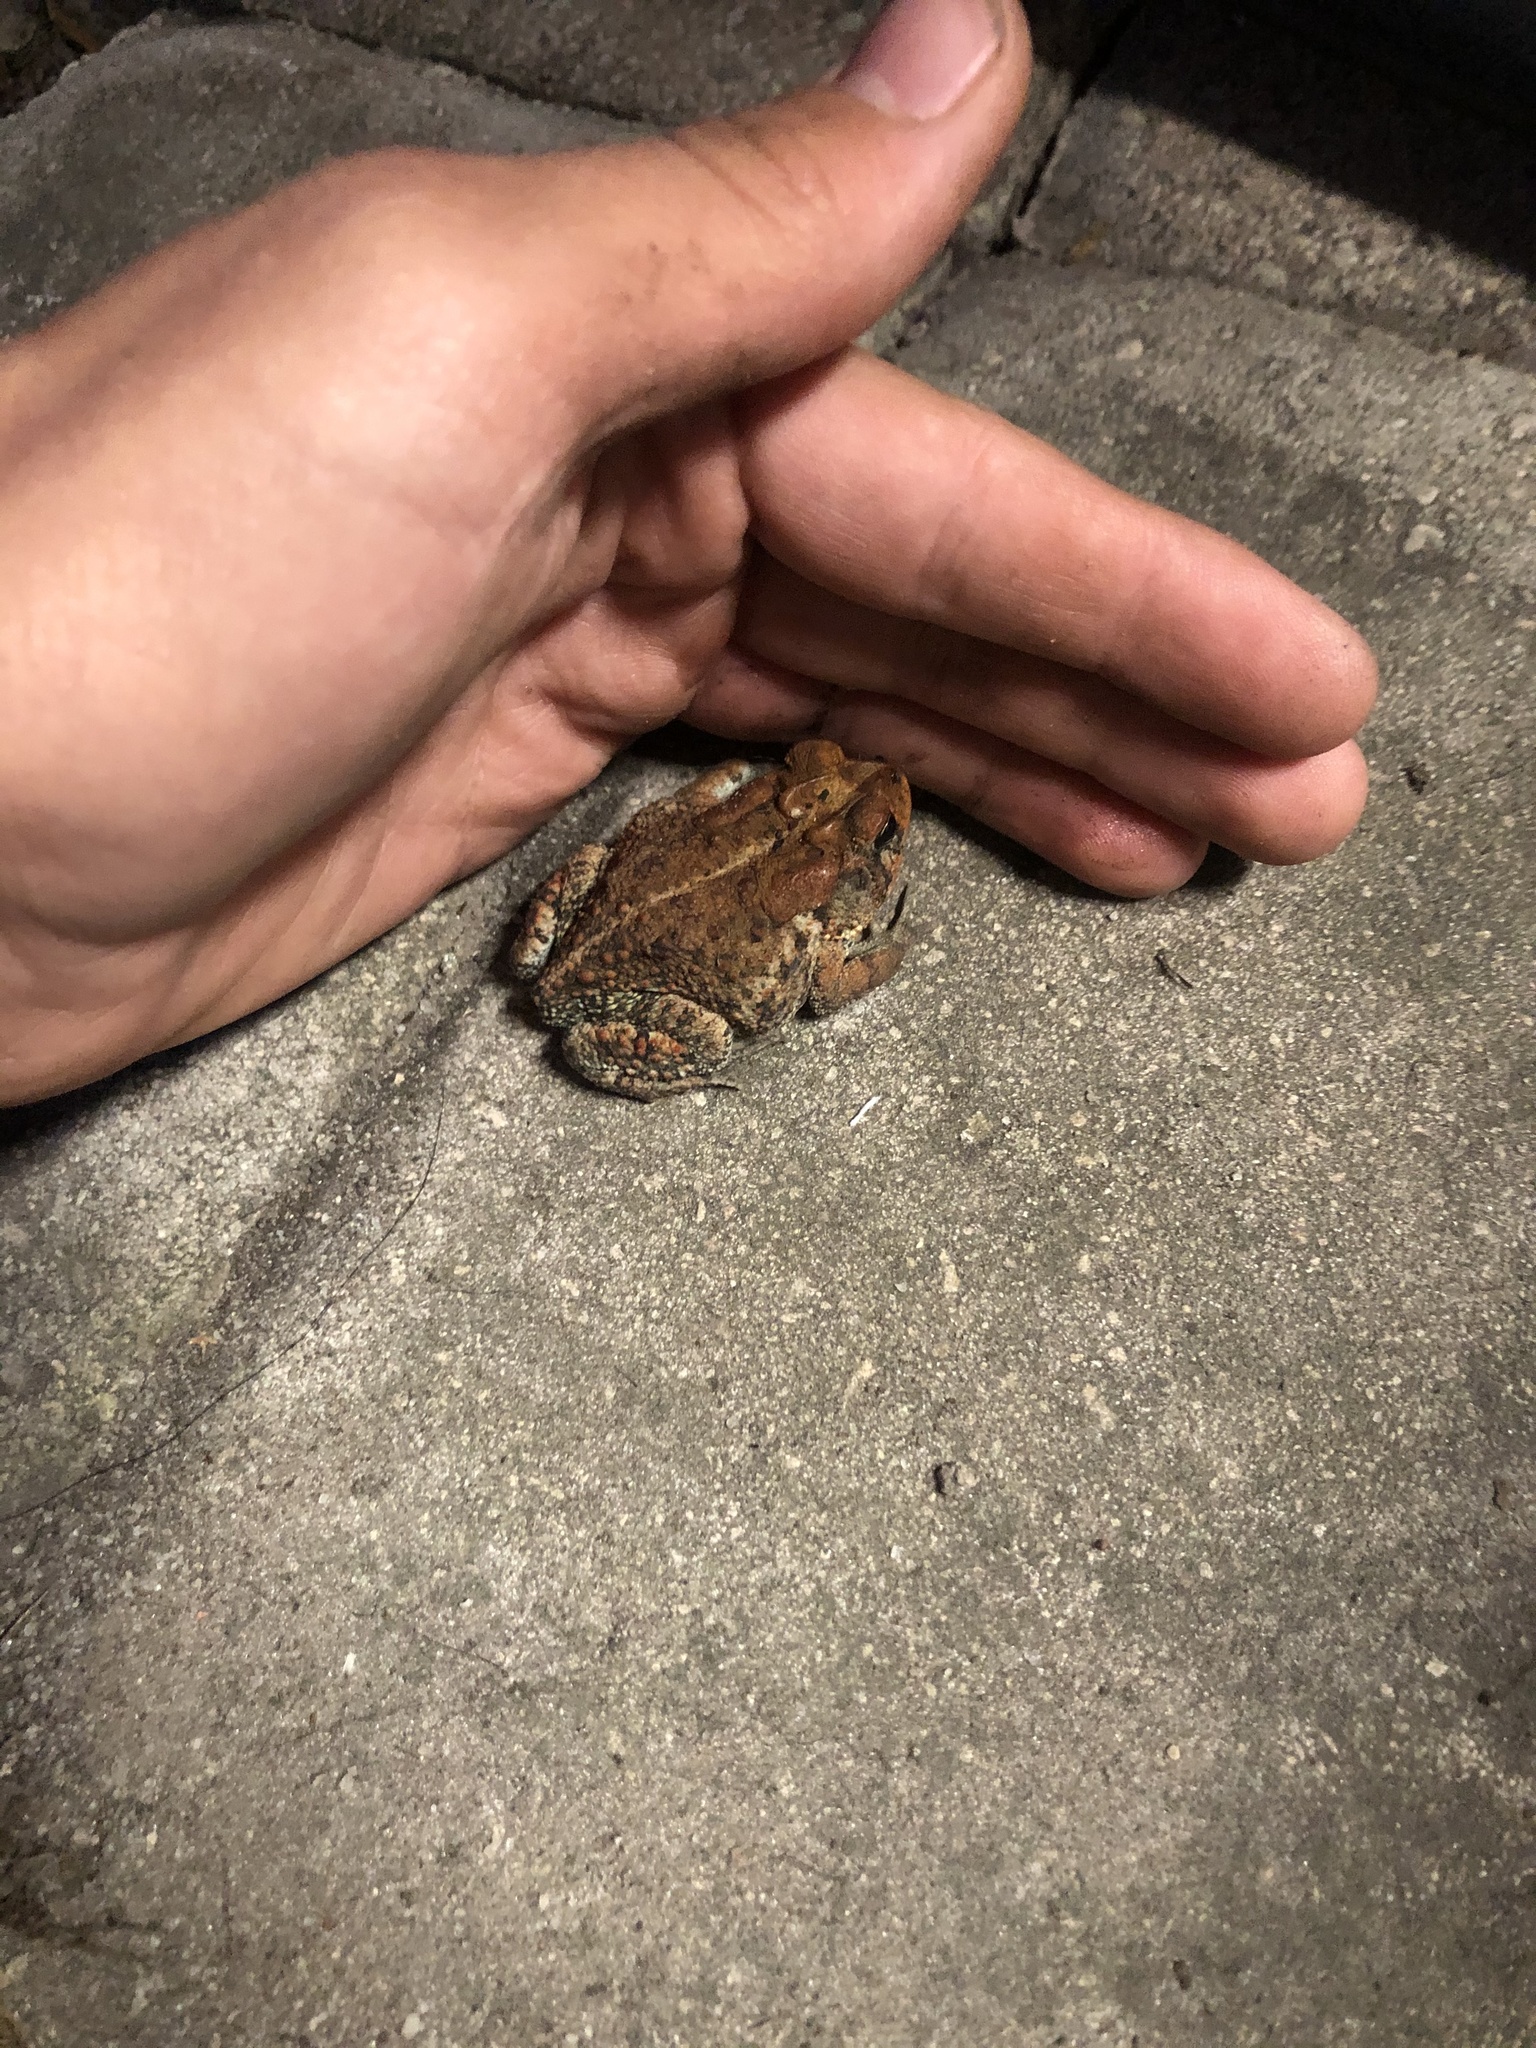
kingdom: Animalia
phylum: Chordata
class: Amphibia
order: Anura
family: Bufonidae
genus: Anaxyrus
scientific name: Anaxyrus terrestris
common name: Southern toad
